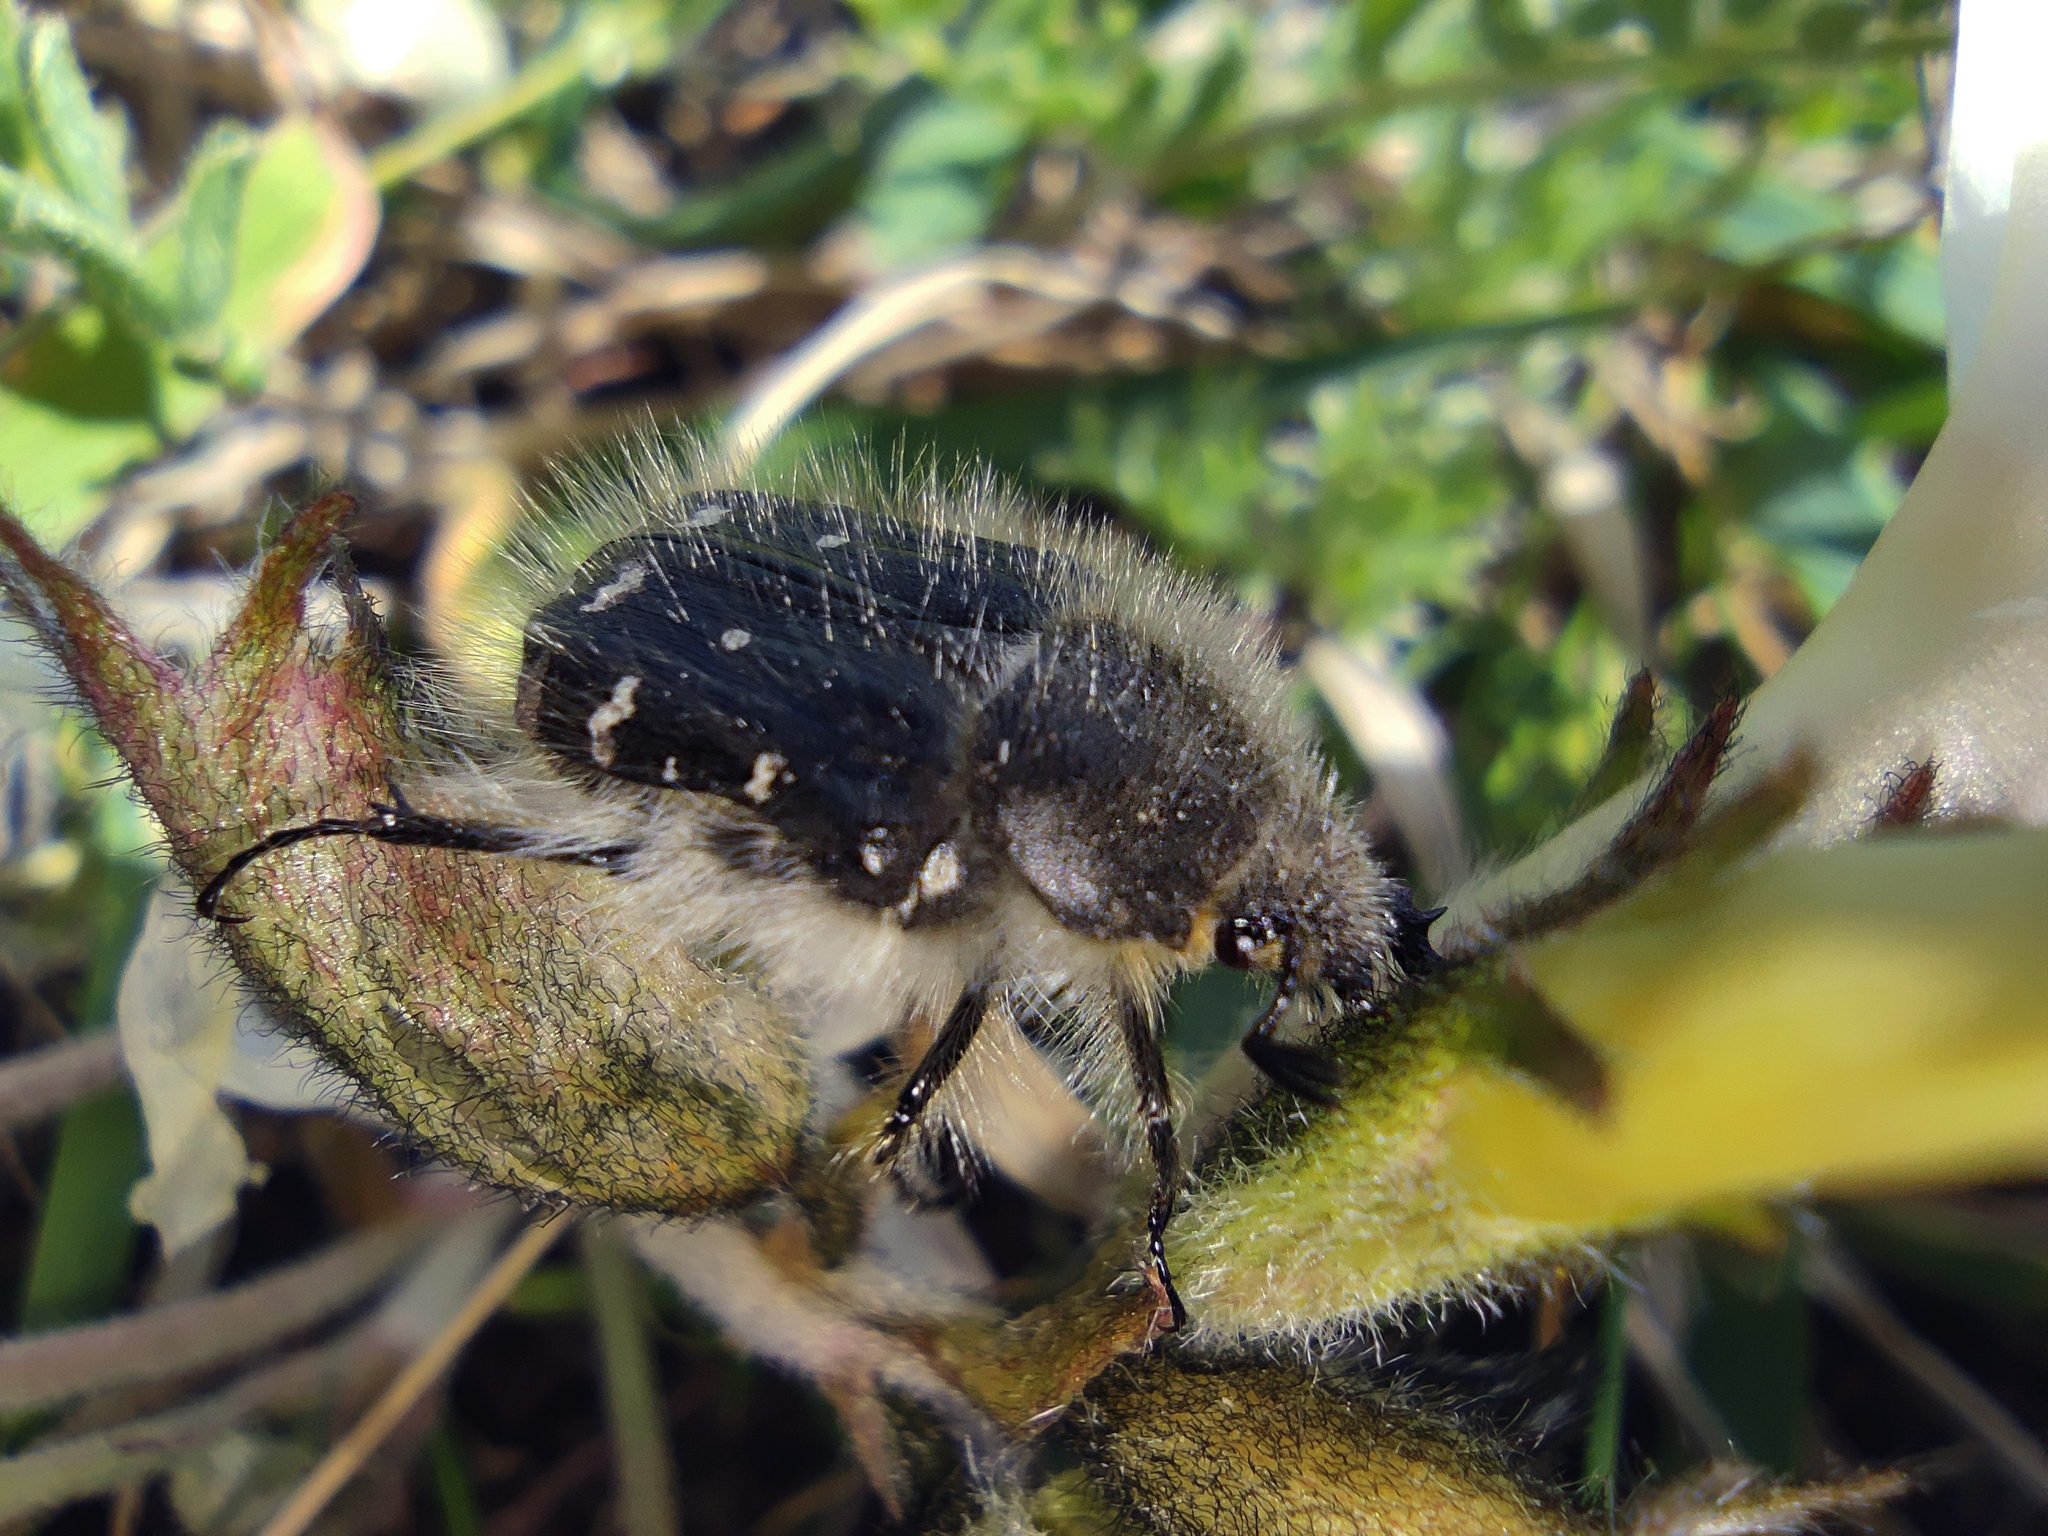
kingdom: Animalia
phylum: Arthropoda
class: Insecta
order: Coleoptera
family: Scarabaeidae
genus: Tropinota
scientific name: Tropinota hirta
